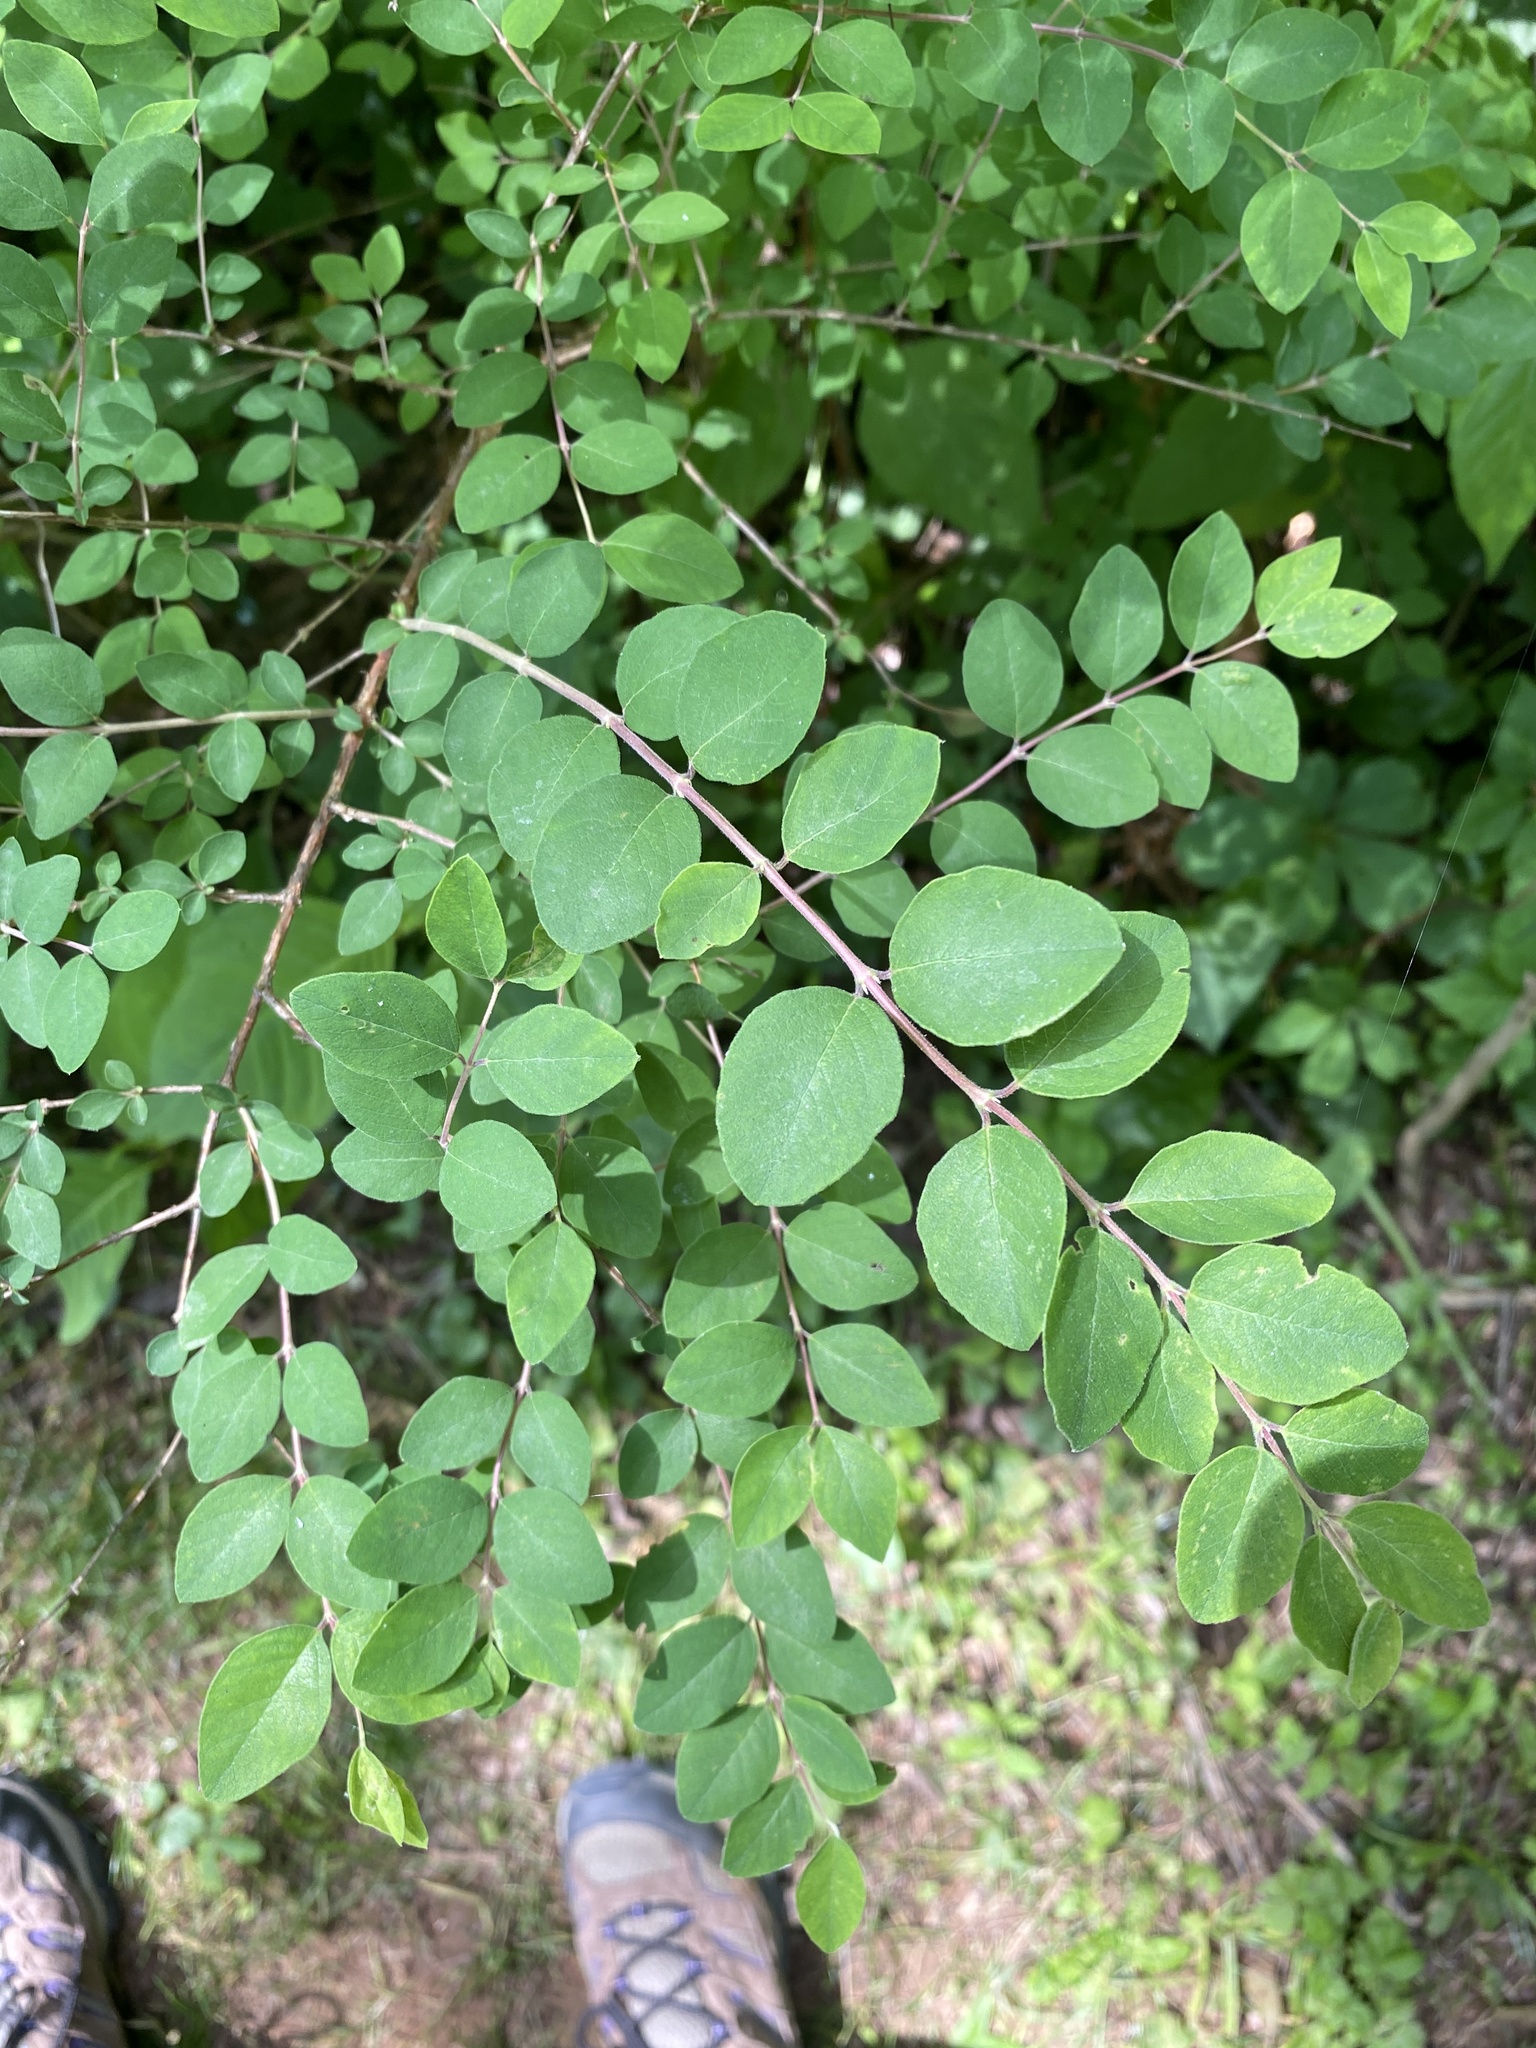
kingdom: Plantae
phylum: Tracheophyta
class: Magnoliopsida
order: Dipsacales
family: Caprifoliaceae
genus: Symphoricarpos
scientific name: Symphoricarpos orbiculatus
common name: Coralberry
